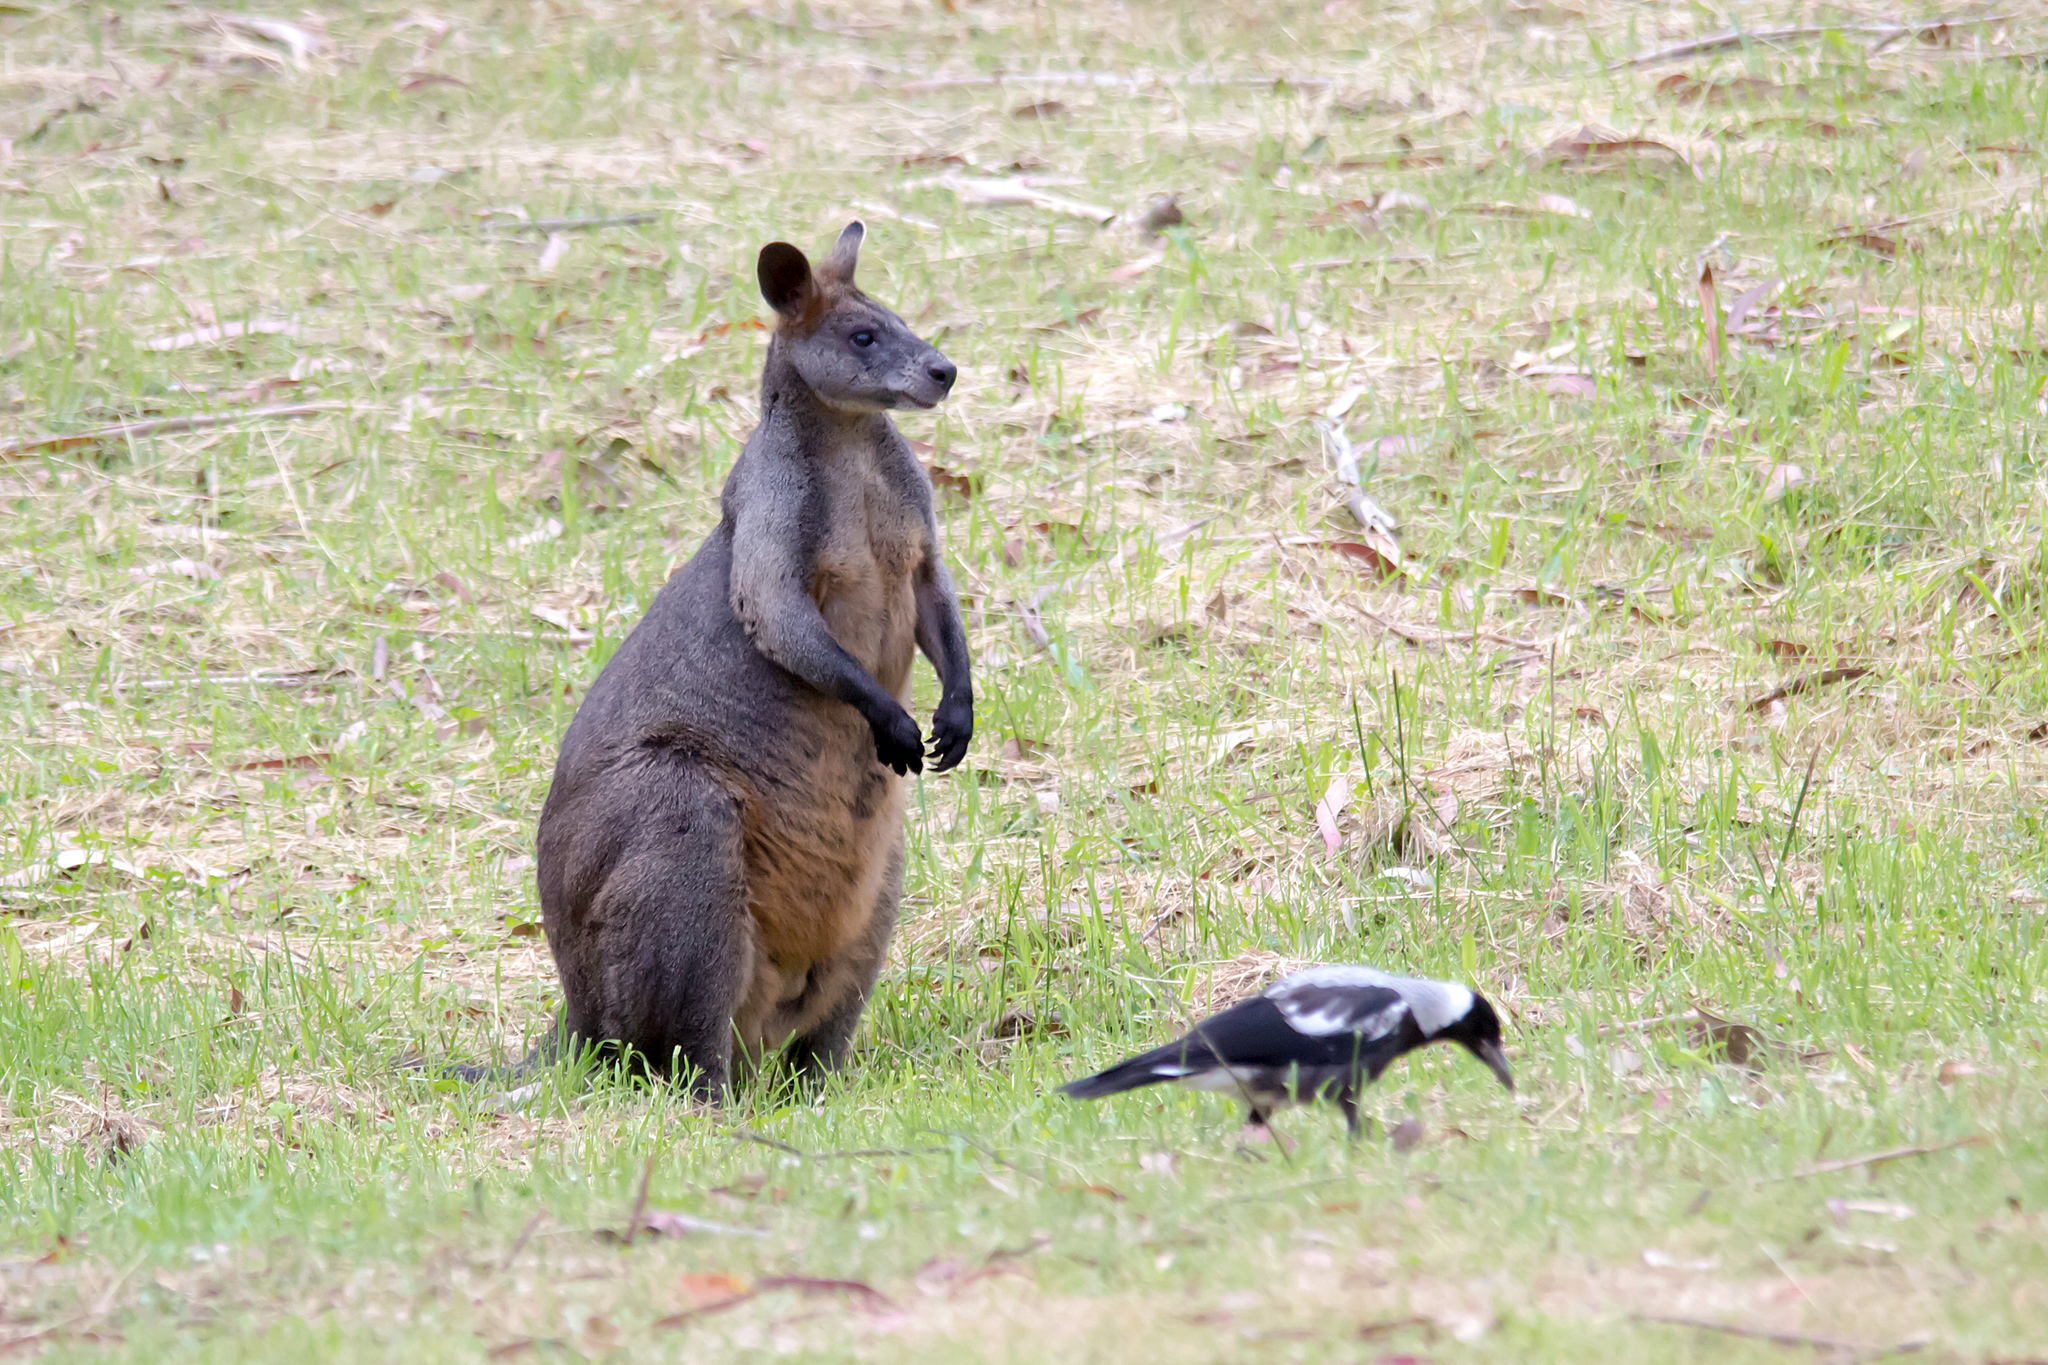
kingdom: Animalia
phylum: Chordata
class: Mammalia
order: Diprotodontia
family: Macropodidae
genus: Wallabia
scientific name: Wallabia bicolor
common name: Swamp wallaby
